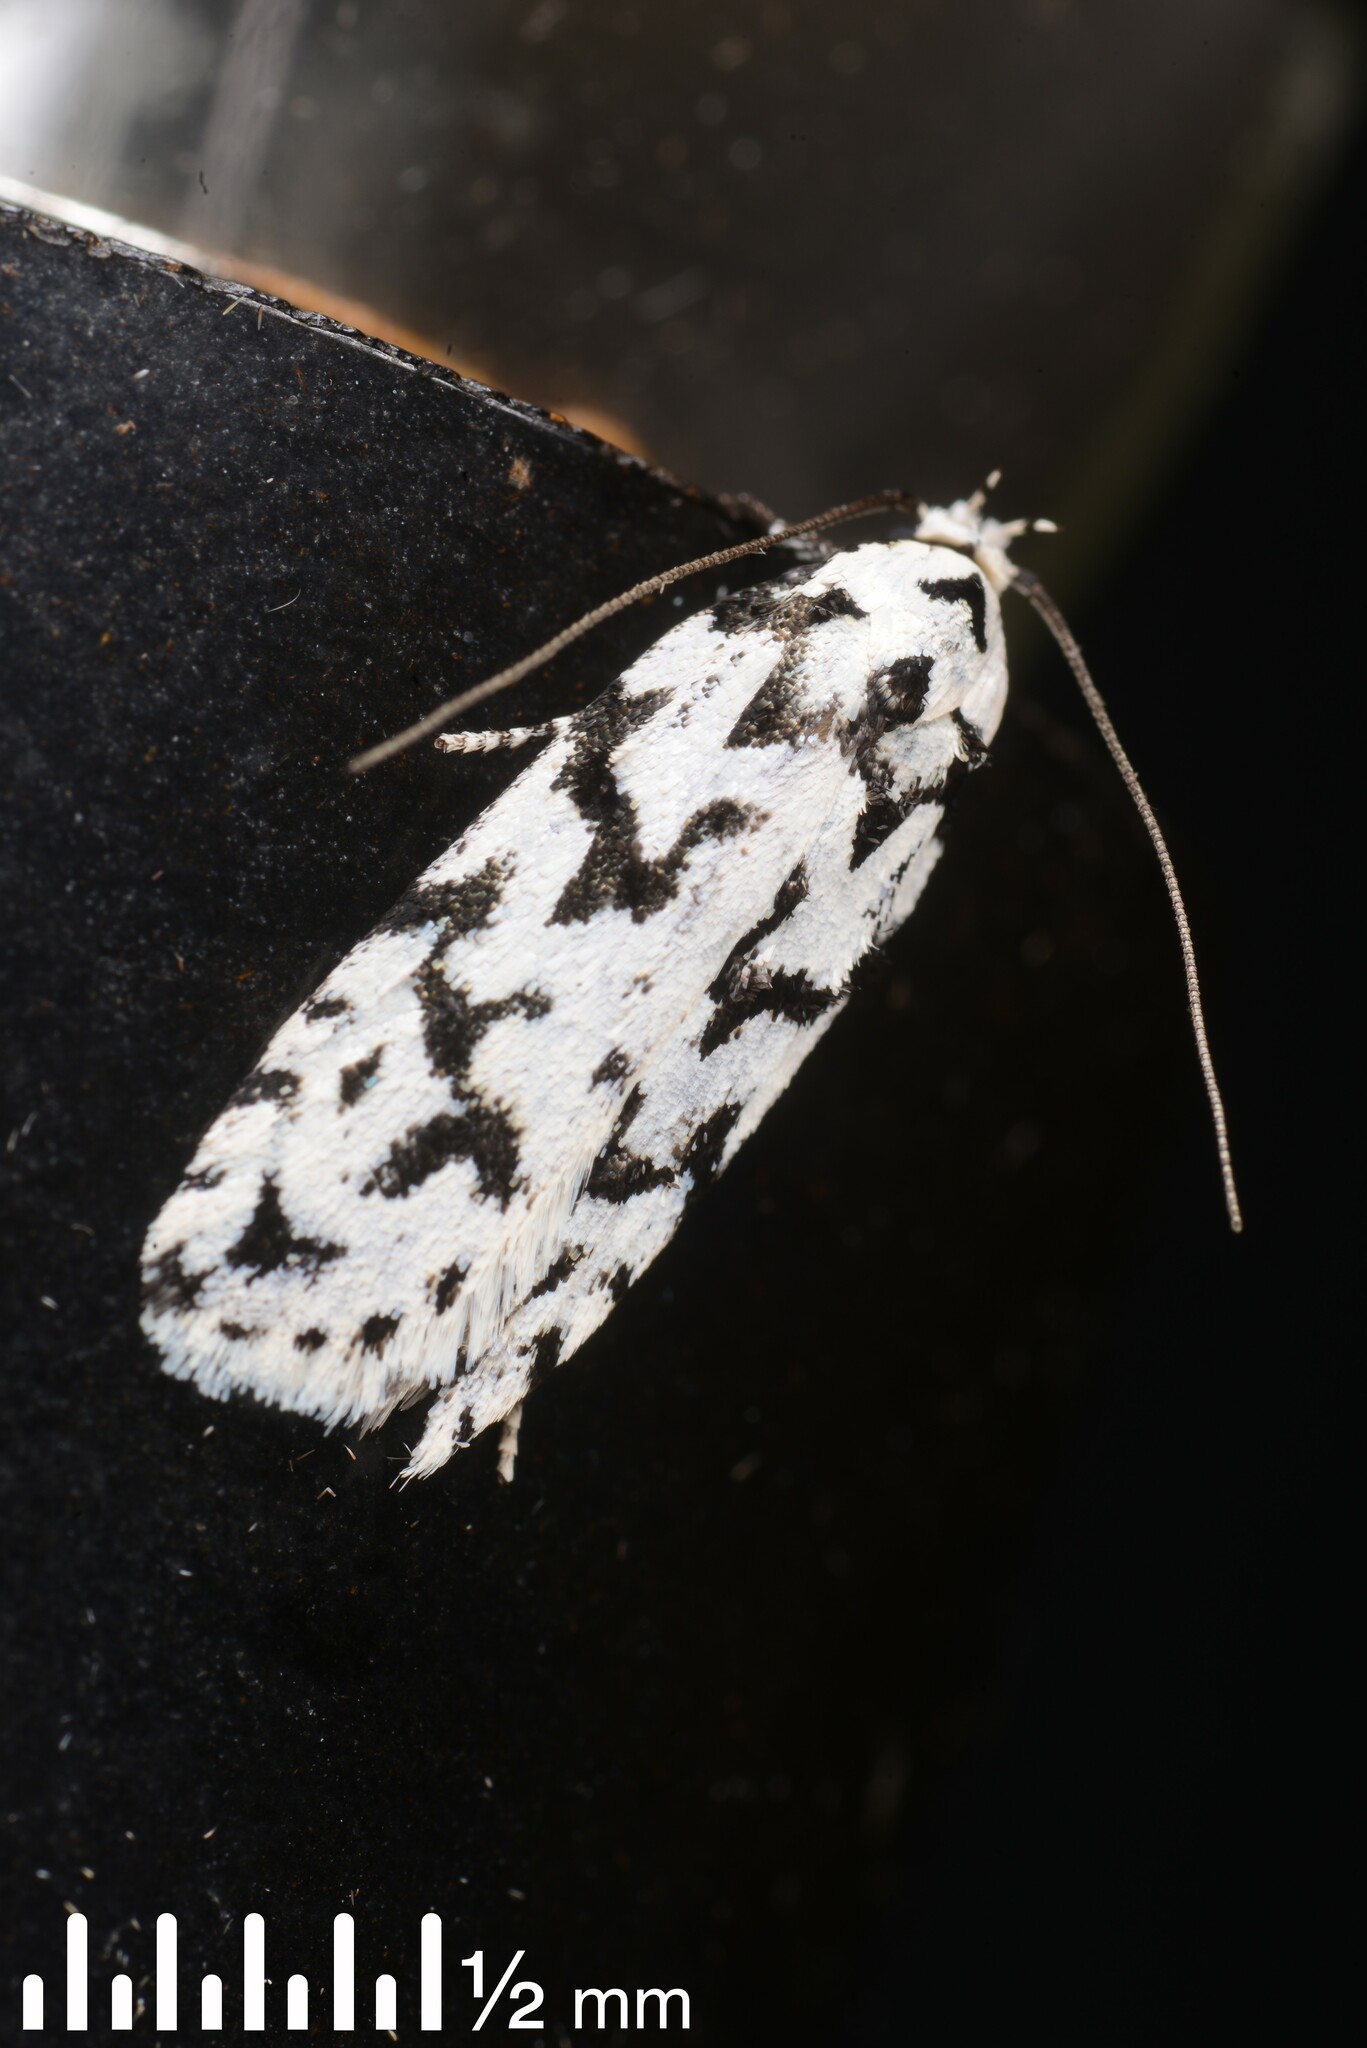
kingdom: Animalia
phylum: Arthropoda
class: Insecta
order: Lepidoptera
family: Oecophoridae
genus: Izatha
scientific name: Izatha katadiktya
